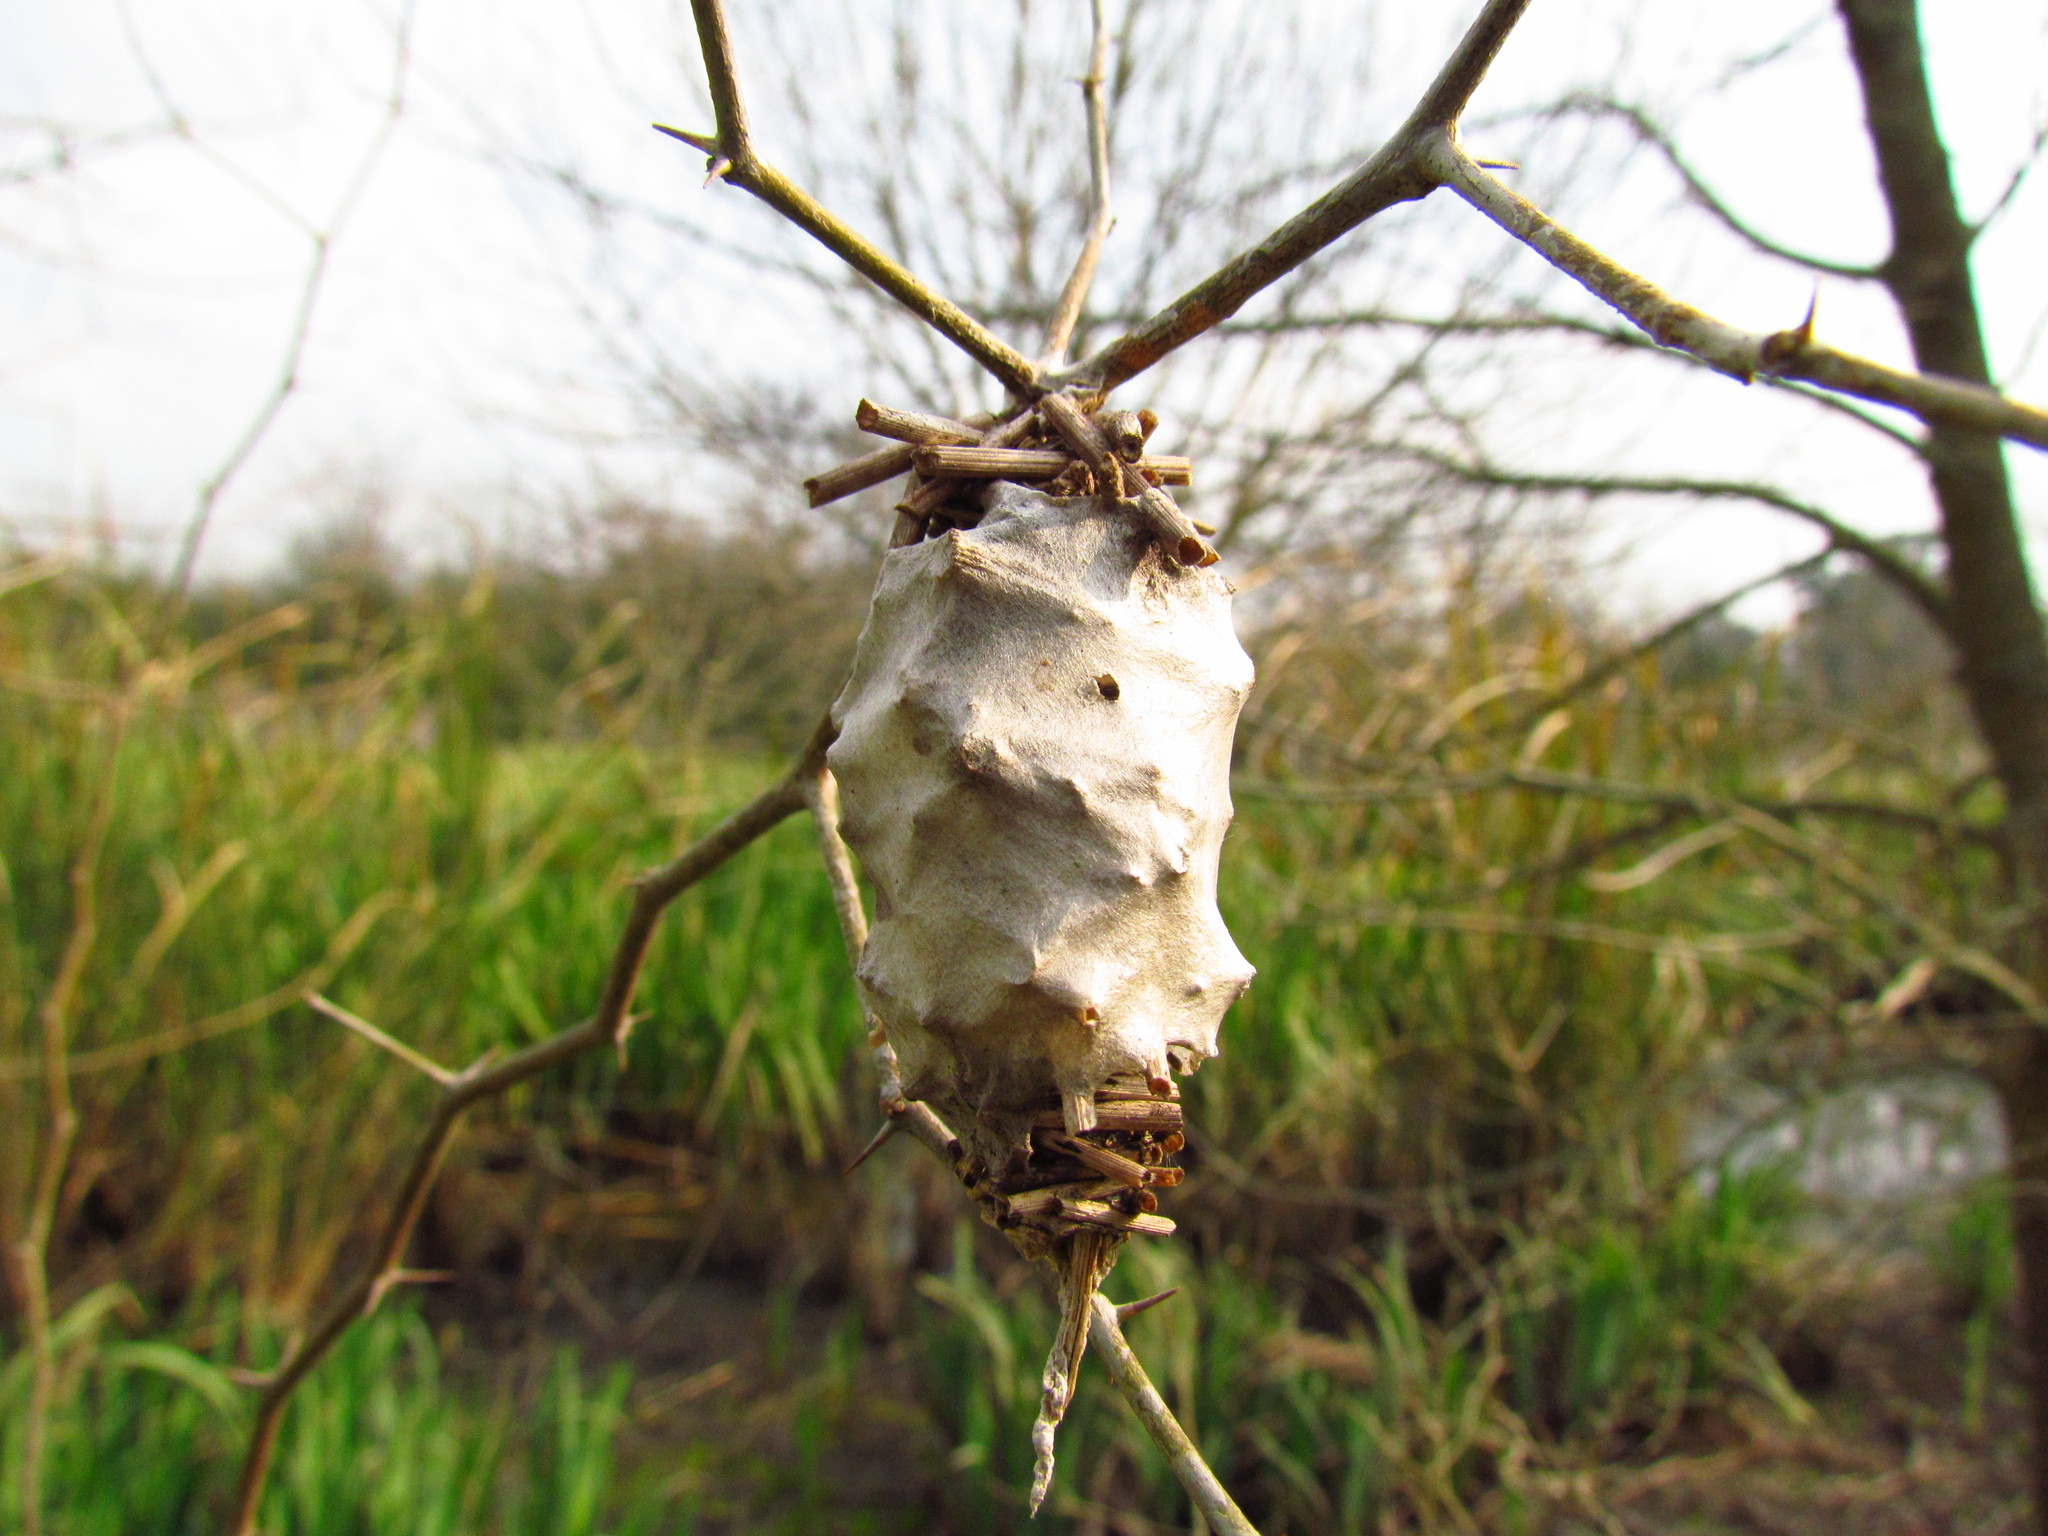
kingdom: Animalia
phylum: Arthropoda
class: Insecta
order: Lepidoptera
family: Psychidae
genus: Oiketicus
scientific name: Oiketicus
